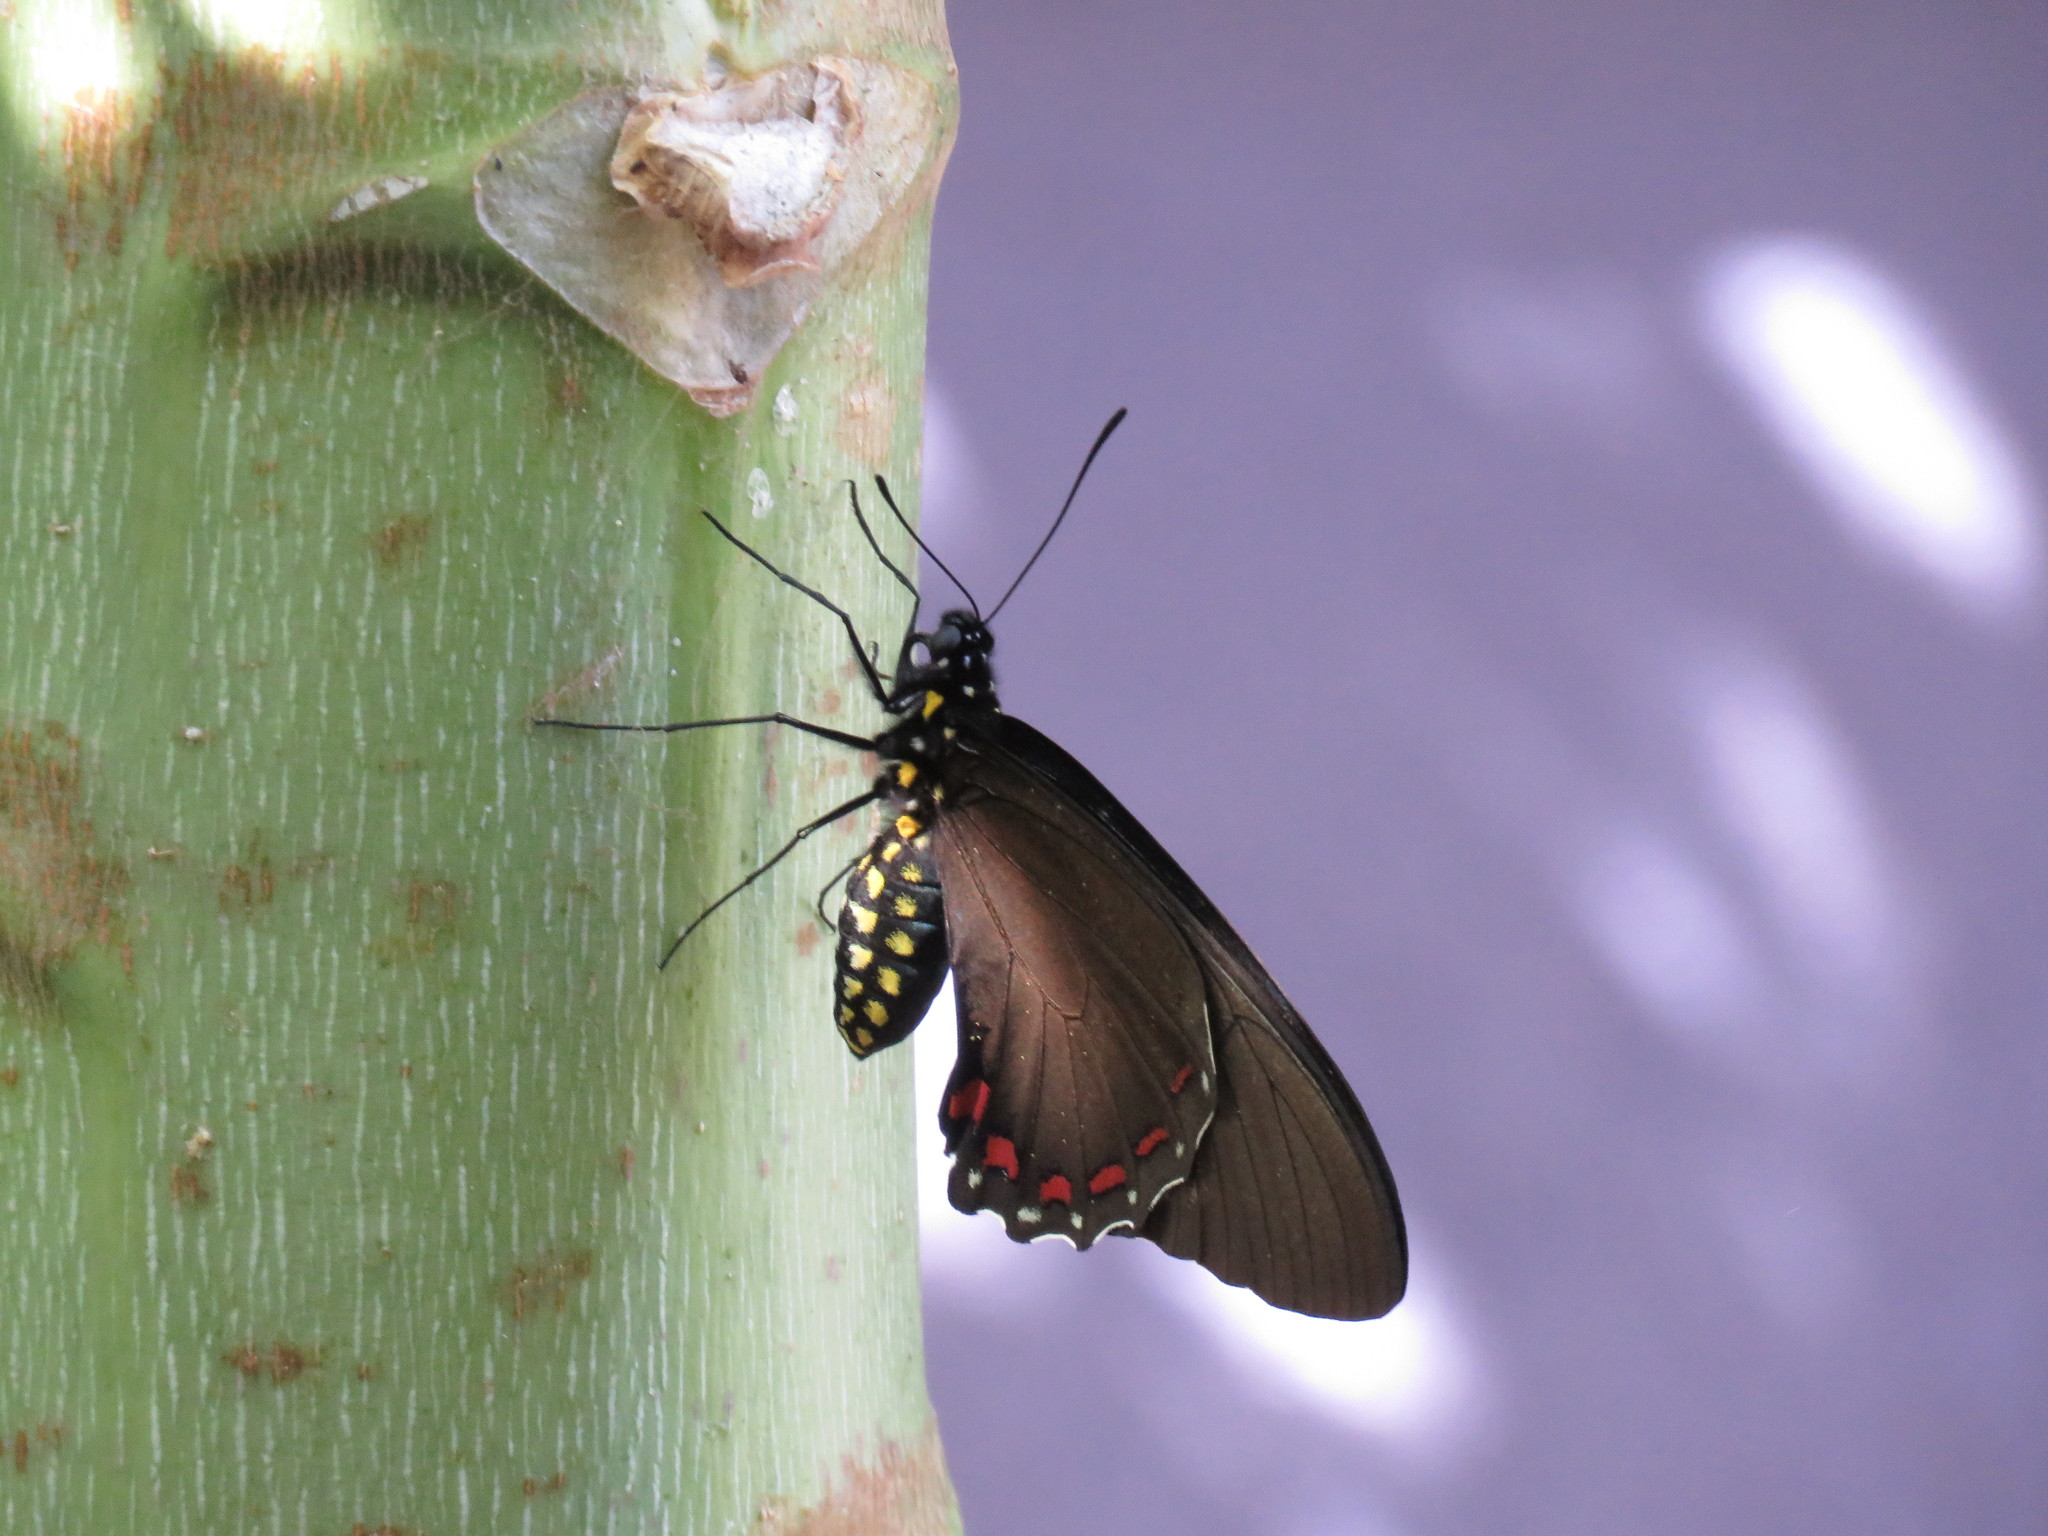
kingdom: Animalia
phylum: Arthropoda
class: Insecta
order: Lepidoptera
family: Papilionidae
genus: Battus
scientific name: Battus ingenuus
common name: Confused swallowtail
